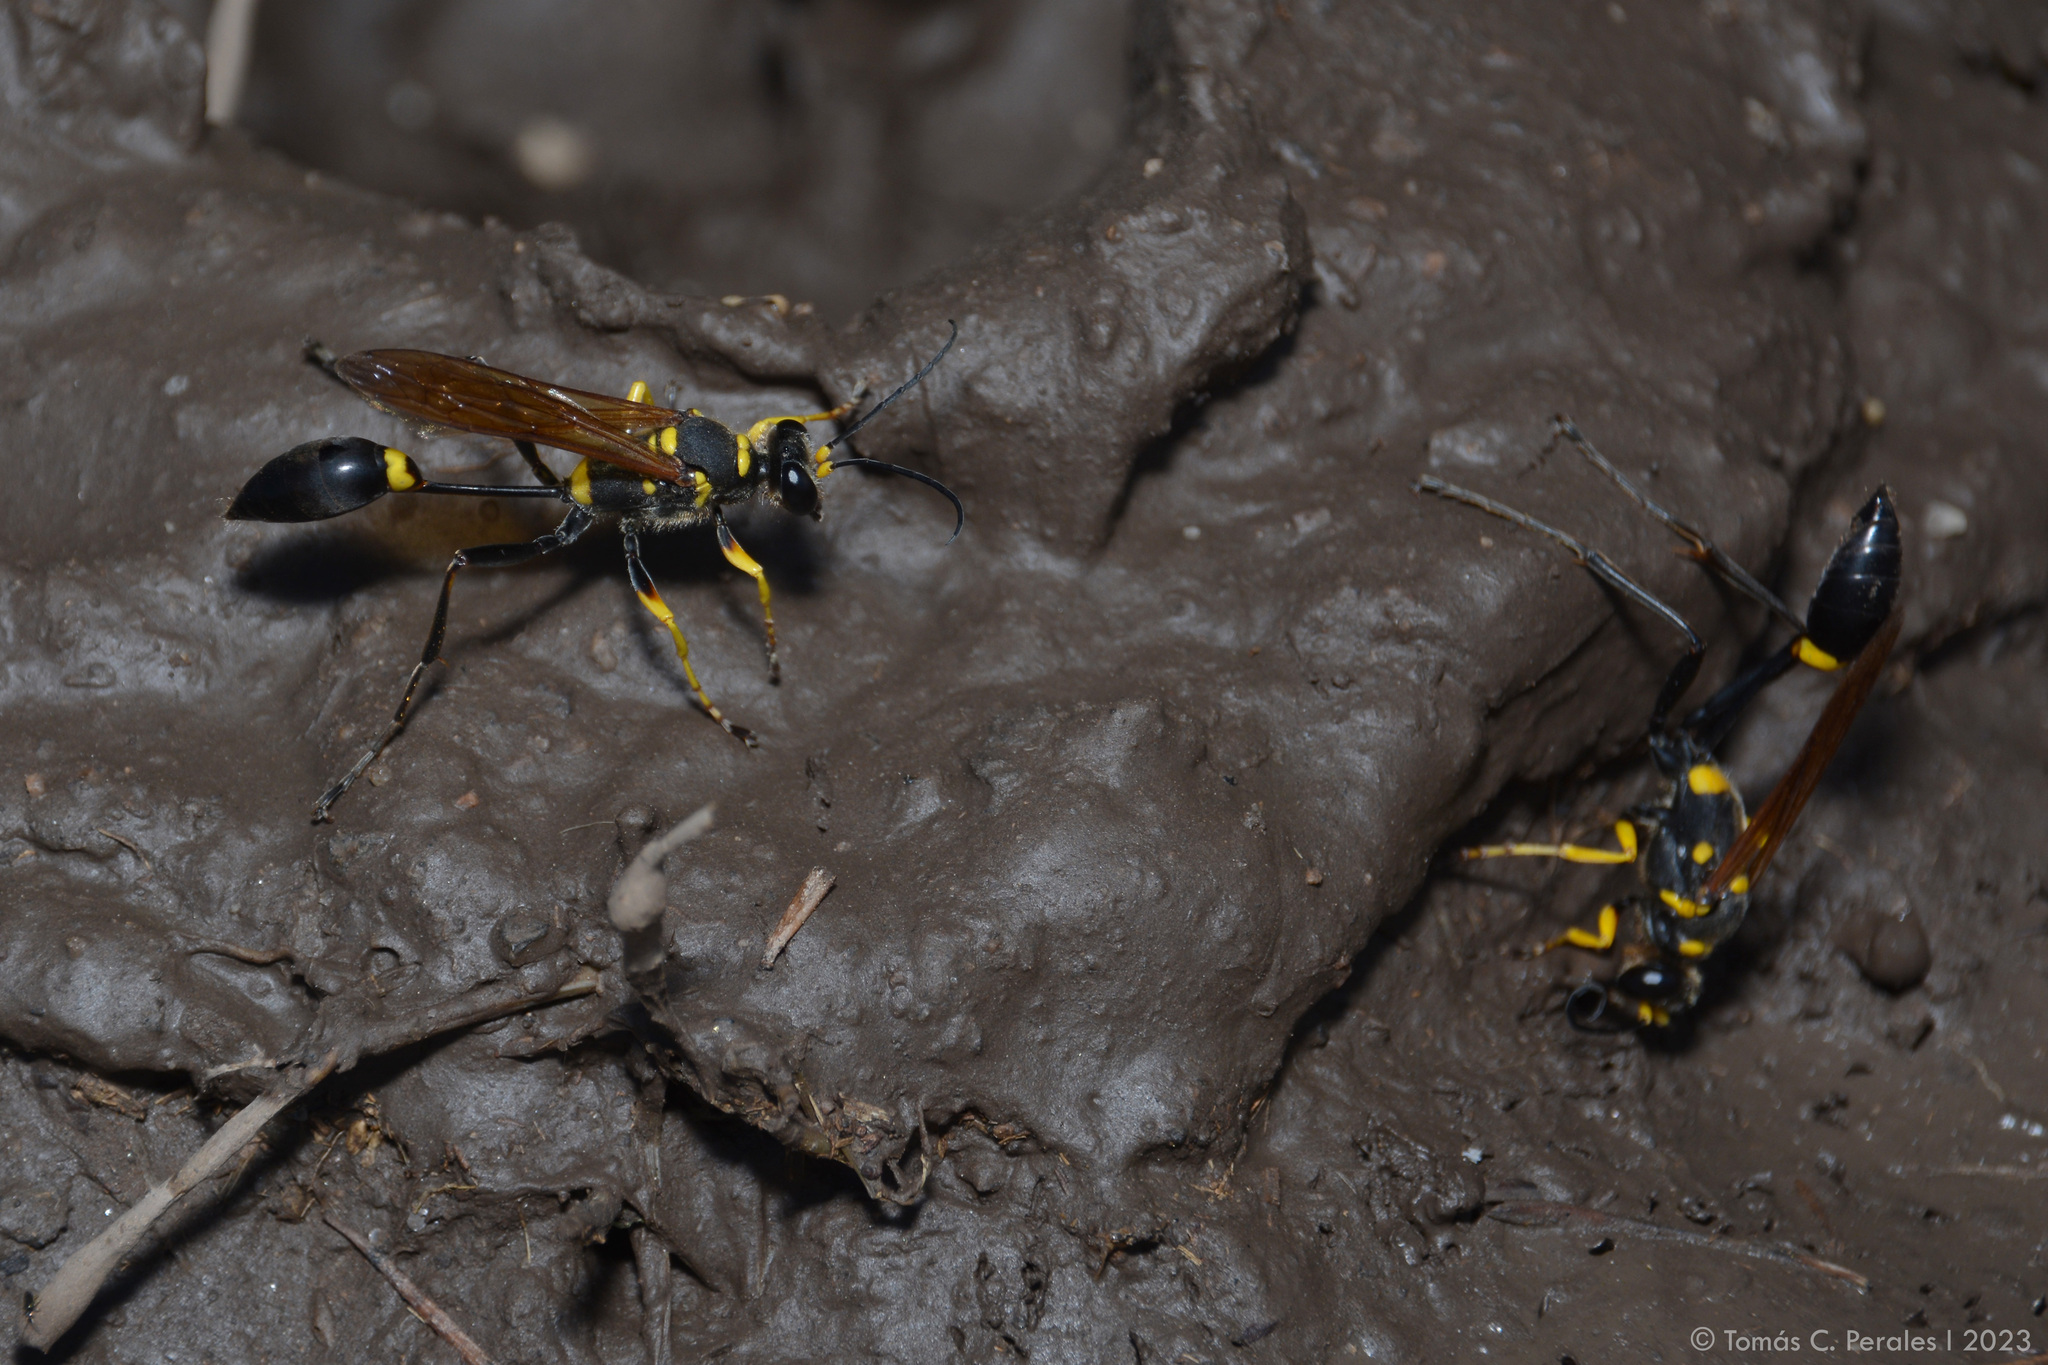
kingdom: Animalia
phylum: Arthropoda
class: Insecta
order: Hymenoptera
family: Sphecidae
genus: Sceliphron
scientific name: Sceliphron asiaticum
